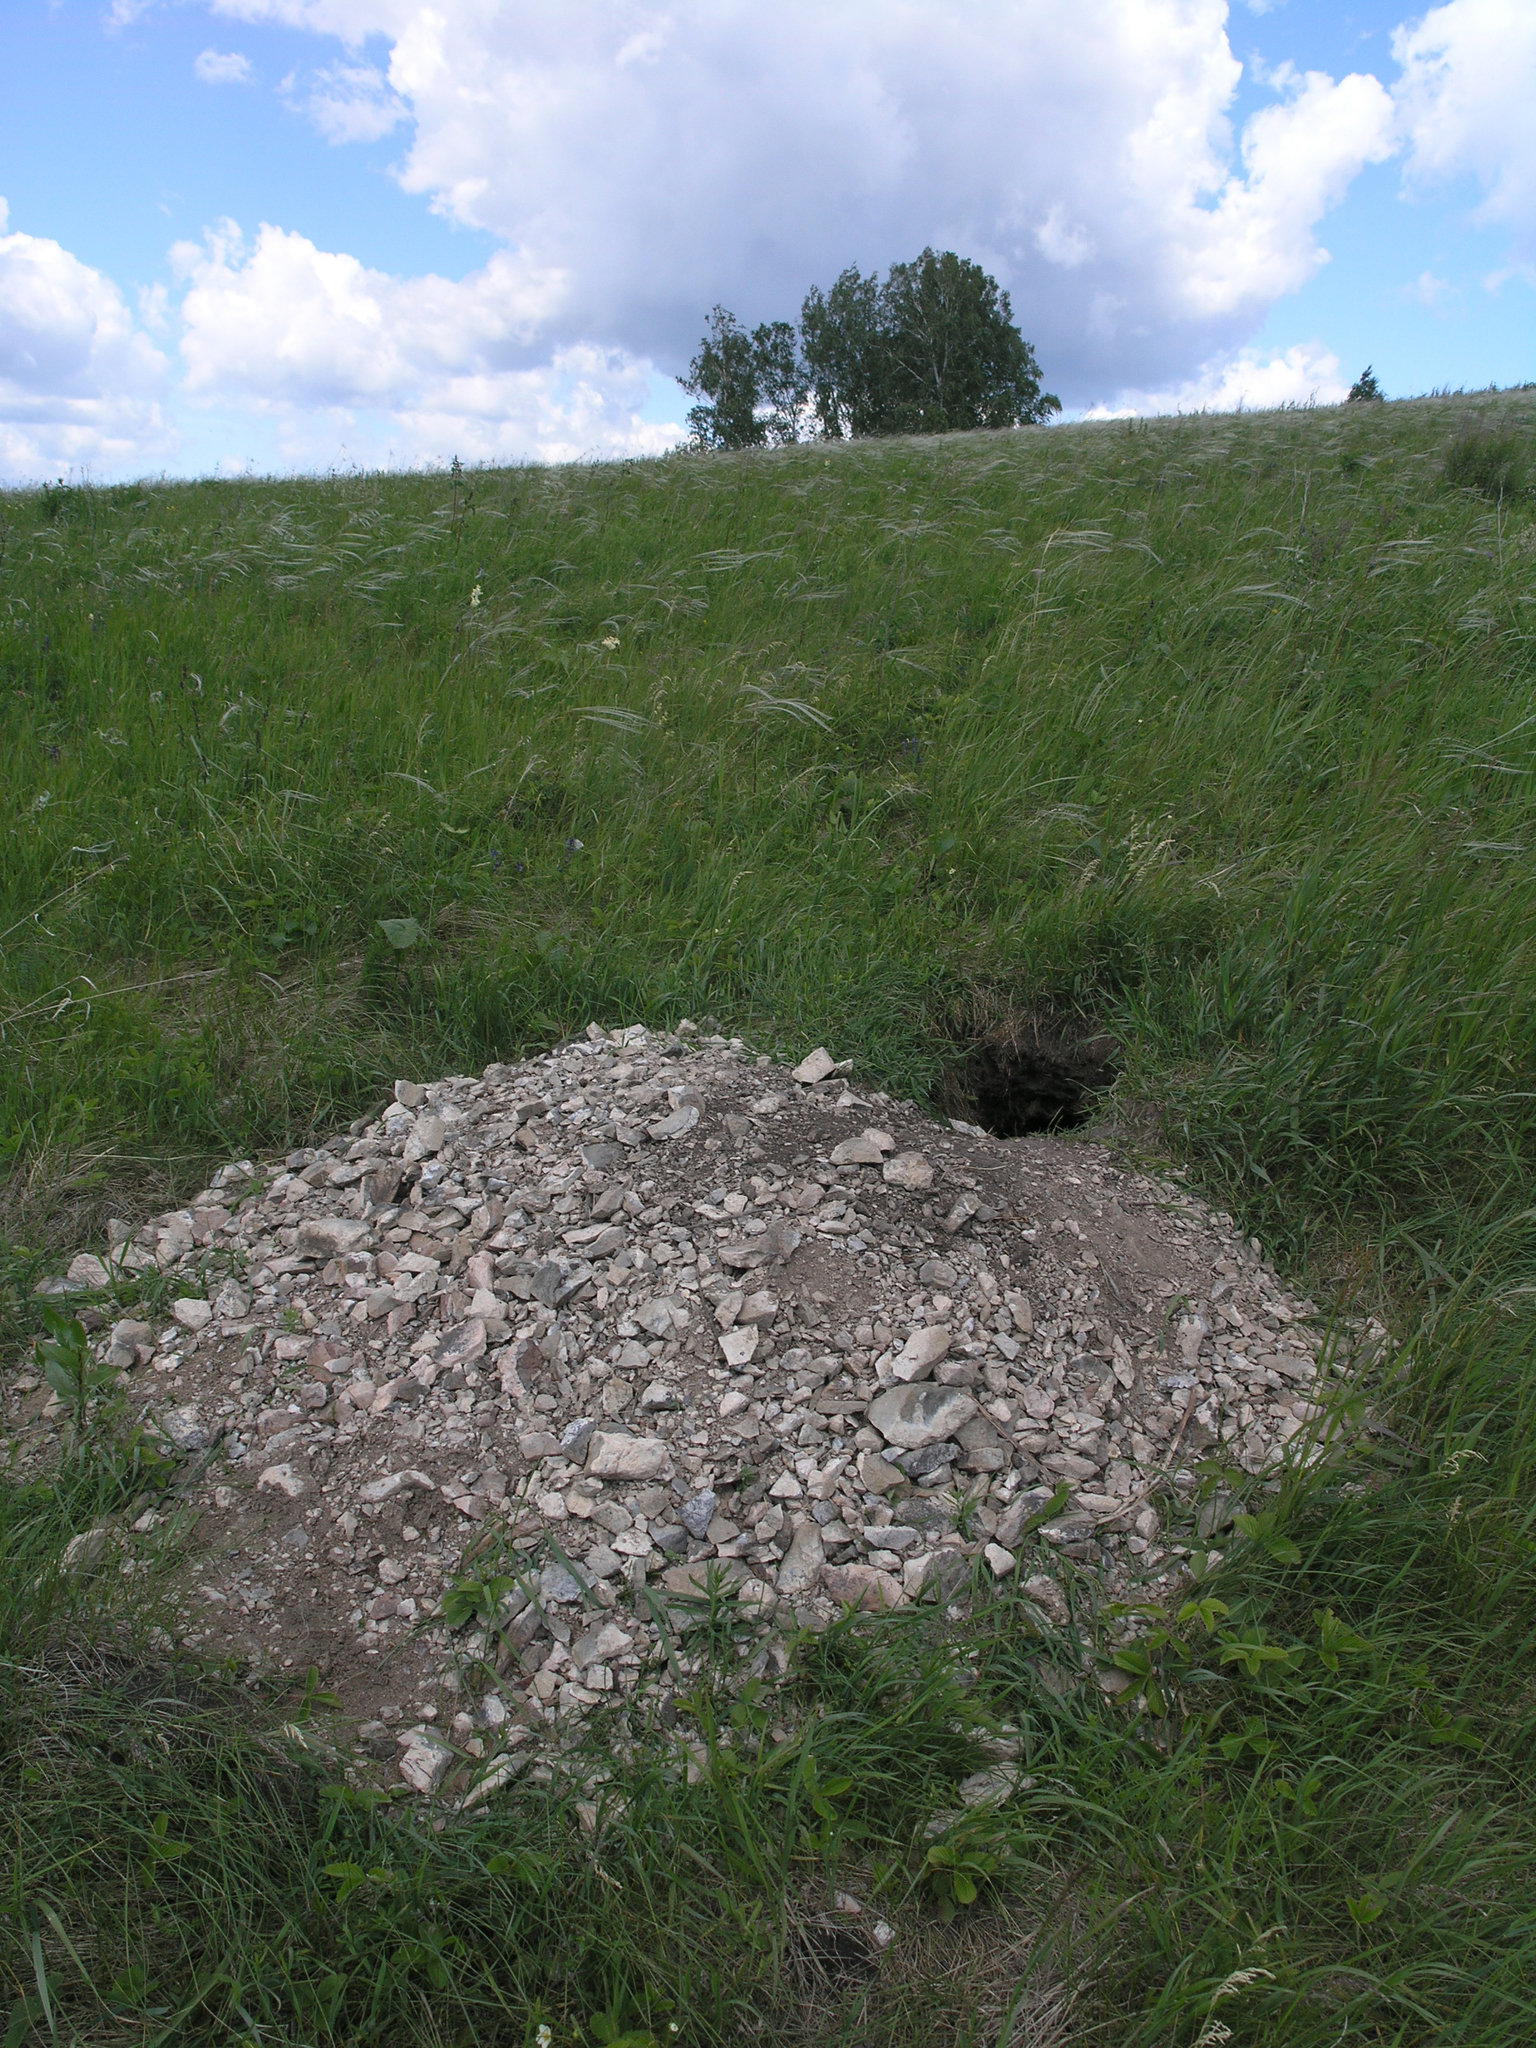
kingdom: Animalia
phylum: Chordata
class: Mammalia
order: Rodentia
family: Sciuridae
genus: Marmota
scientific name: Marmota kastschenkoi
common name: Forest steppe marmot
